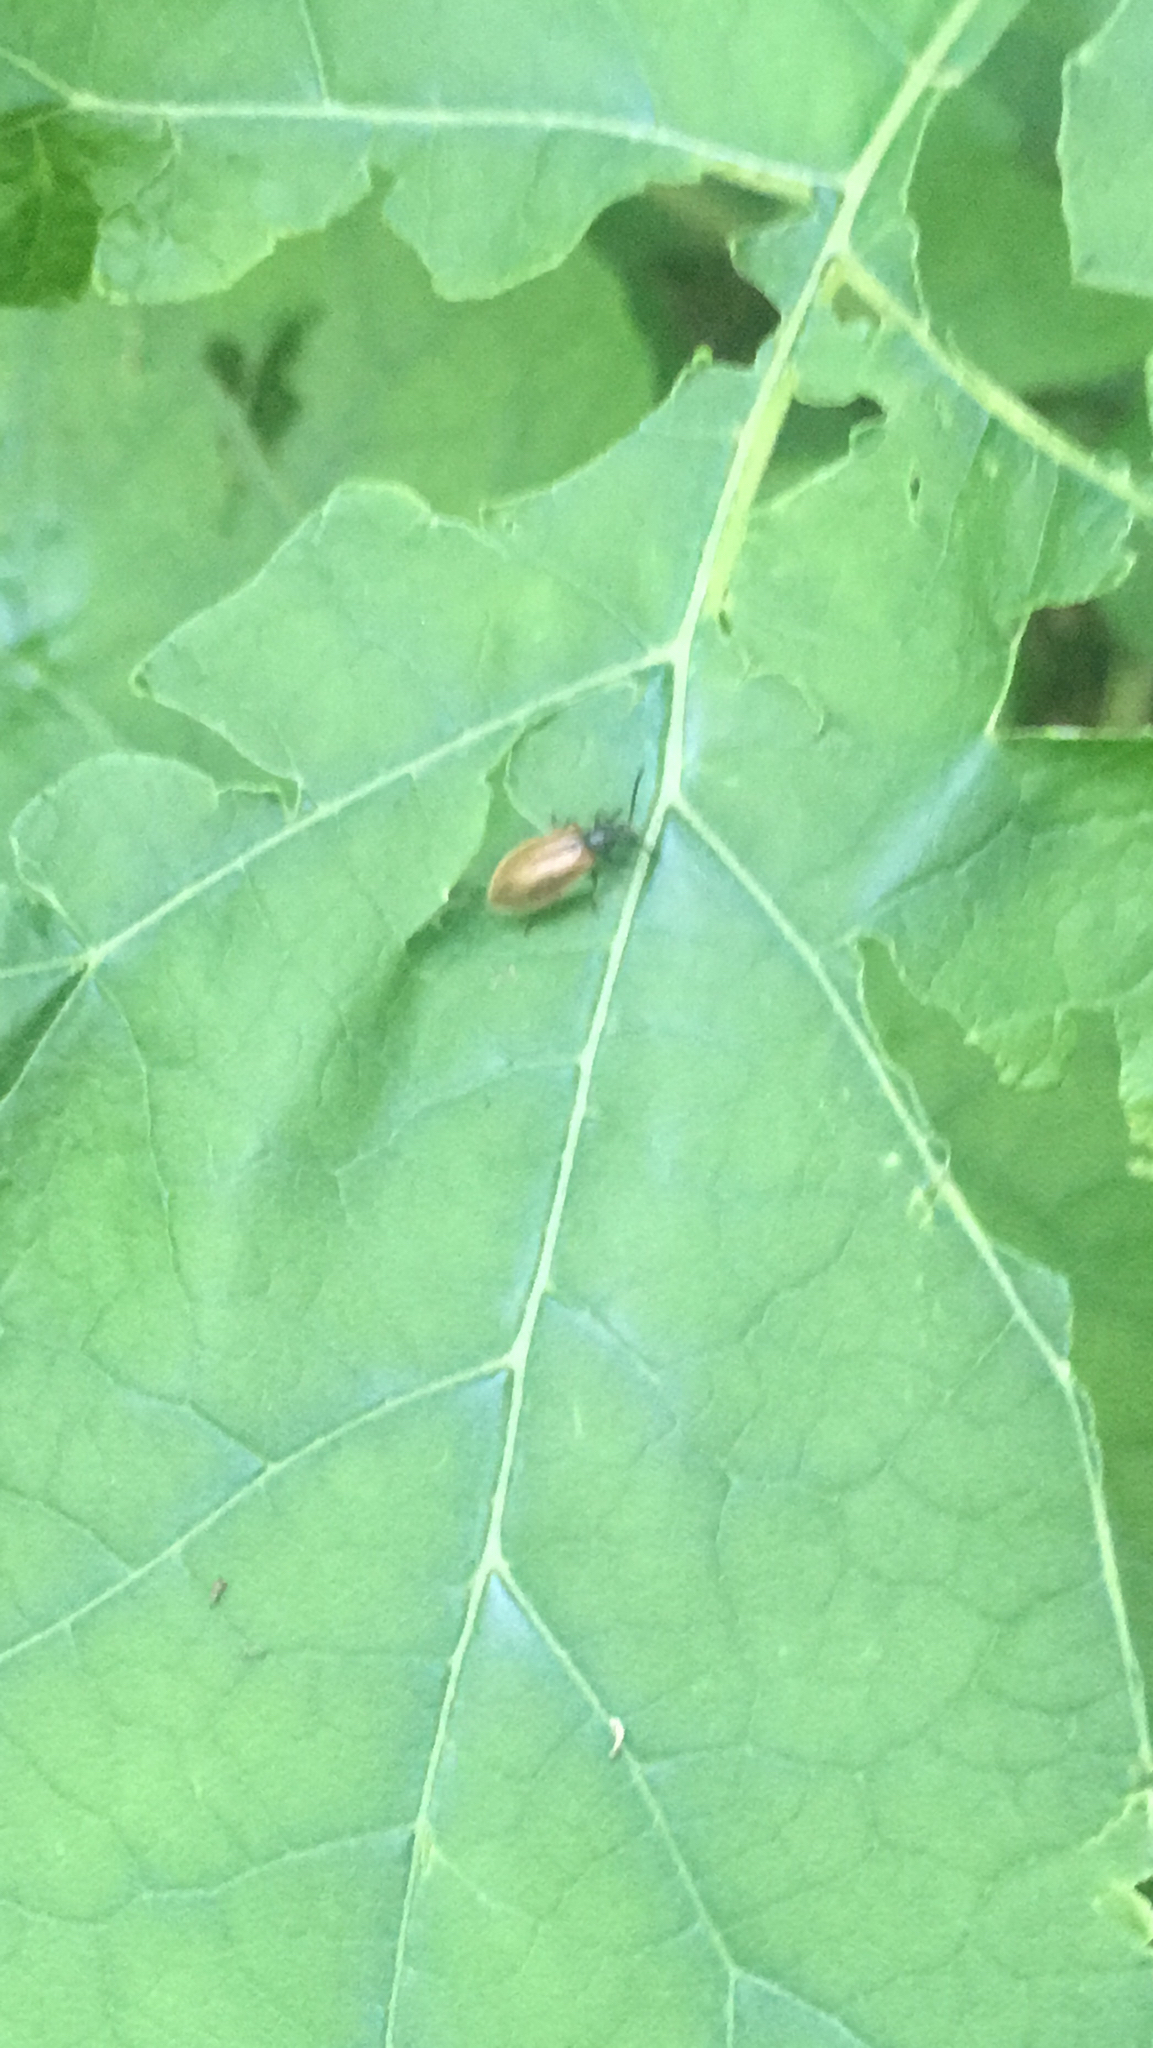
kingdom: Animalia
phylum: Arthropoda
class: Insecta
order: Coleoptera
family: Tenebrionidae
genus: Lagria
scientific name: Lagria hirta
